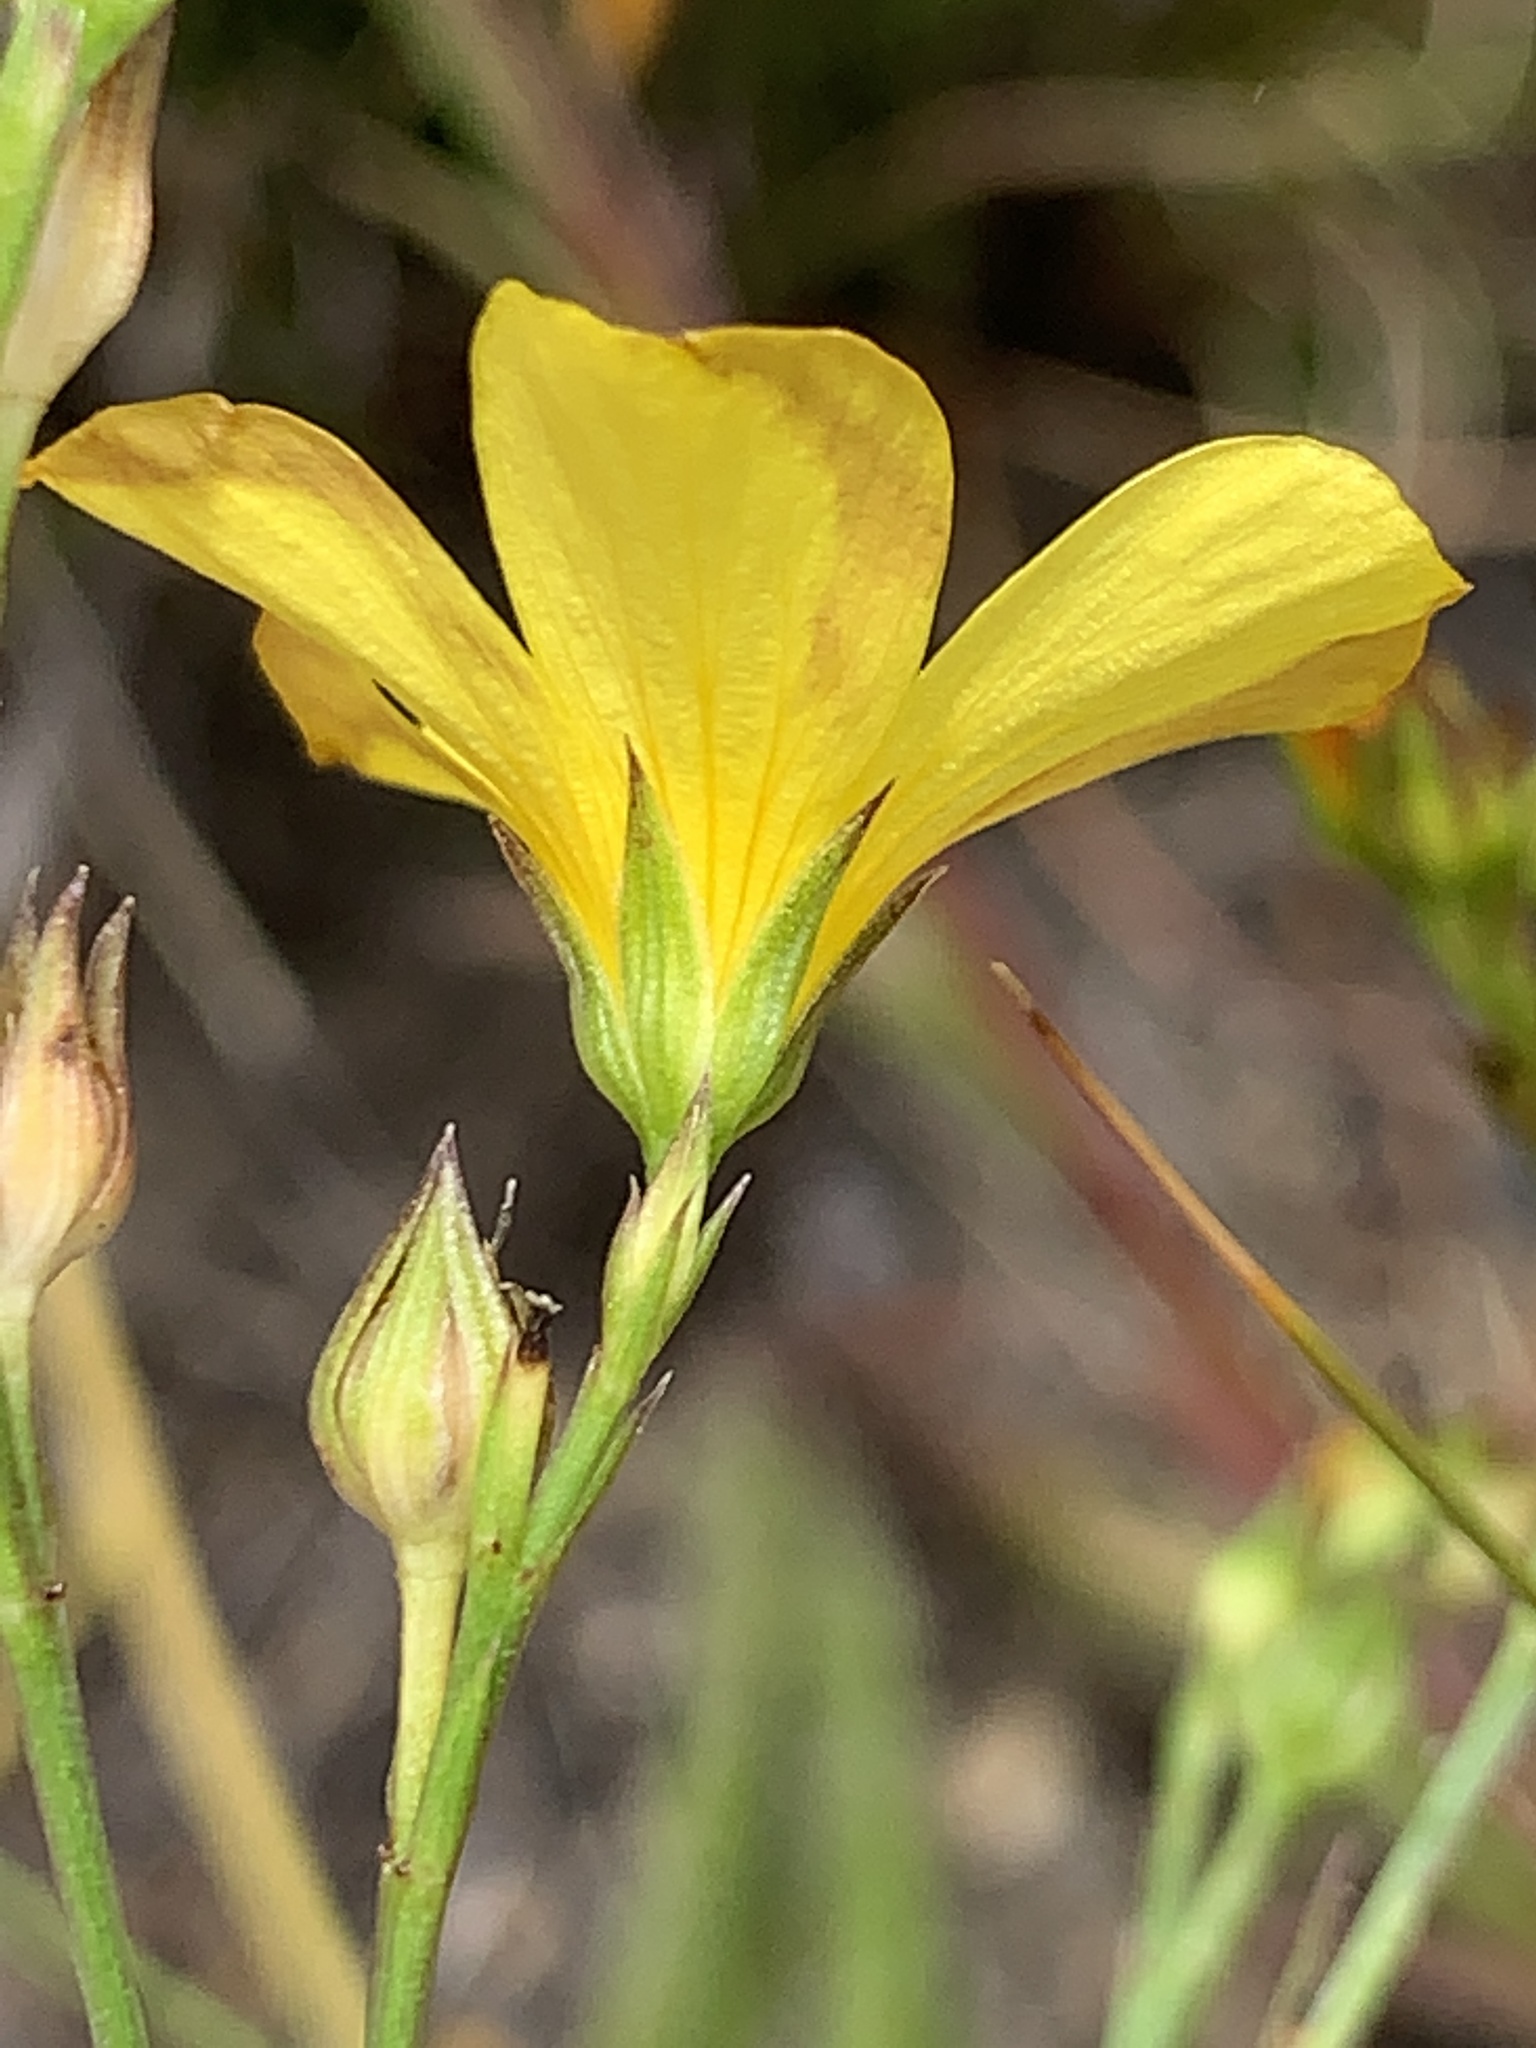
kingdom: Plantae
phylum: Tracheophyta
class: Magnoliopsida
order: Malpighiales
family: Linaceae
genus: Linum
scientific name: Linum africanum
